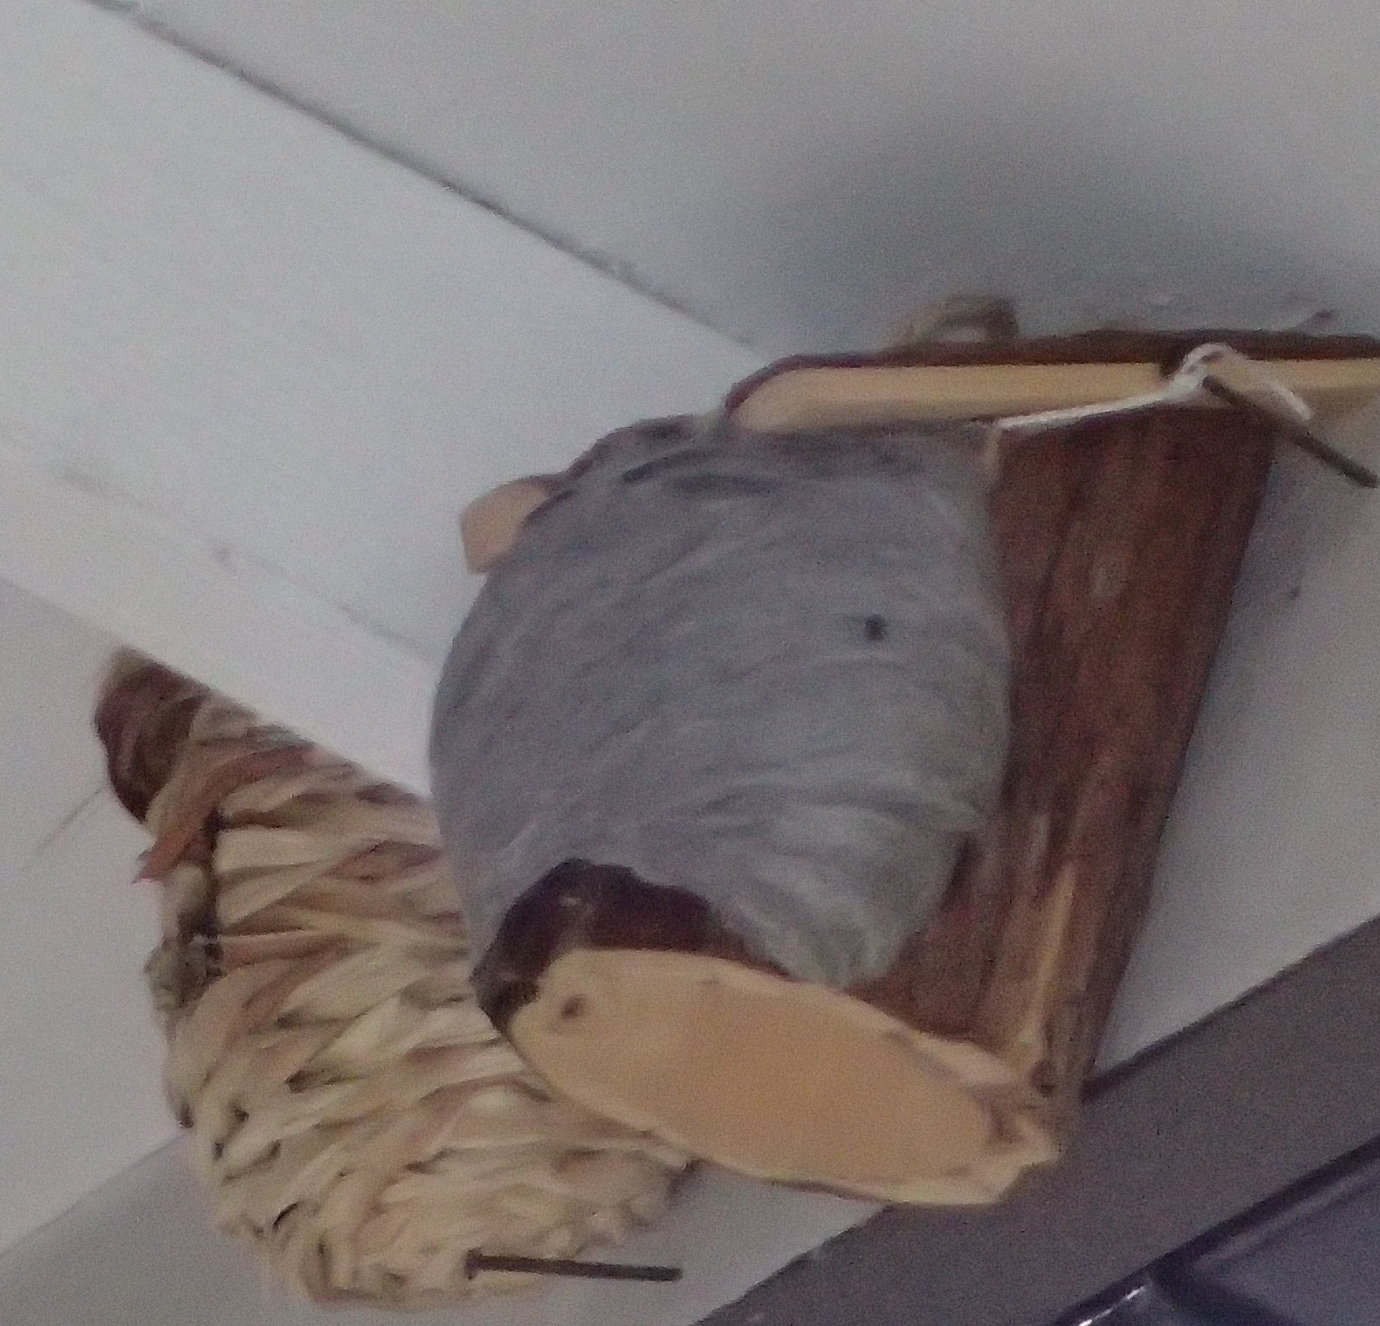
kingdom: Animalia
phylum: Arthropoda
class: Insecta
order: Hymenoptera
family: Vespidae
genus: Dolichovespula
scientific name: Dolichovespula arenaria
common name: Aerial yellowjacket
